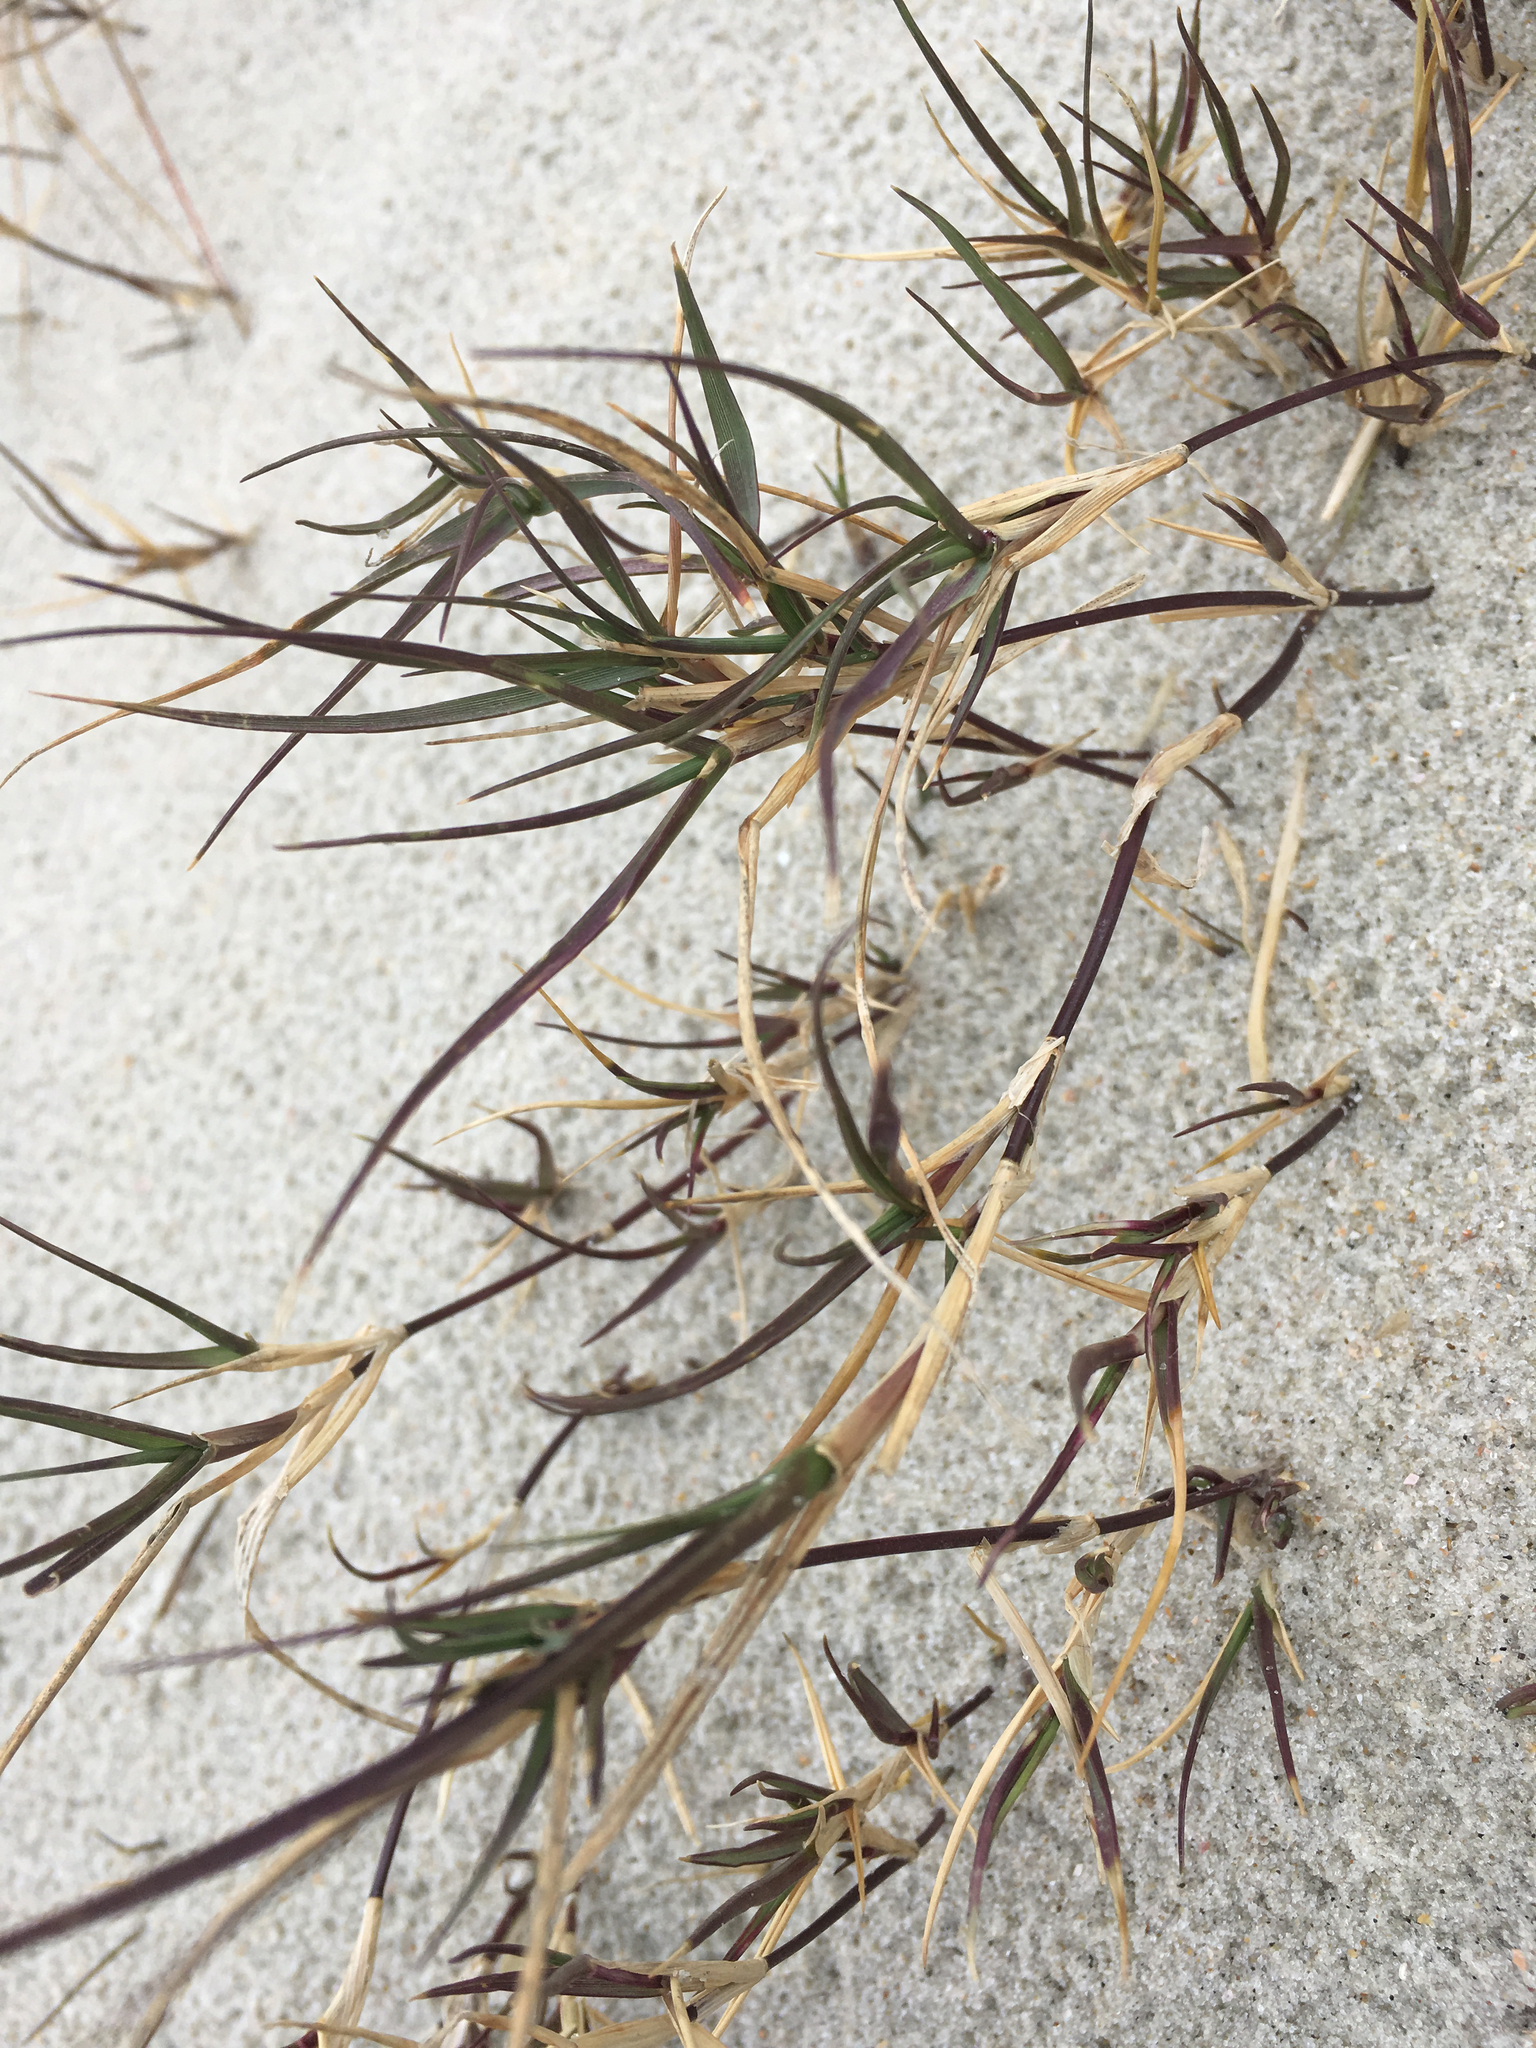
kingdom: Plantae
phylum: Tracheophyta
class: Liliopsida
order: Poales
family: Poaceae
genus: Distichlis
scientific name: Distichlis spicata
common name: Saltgrass
